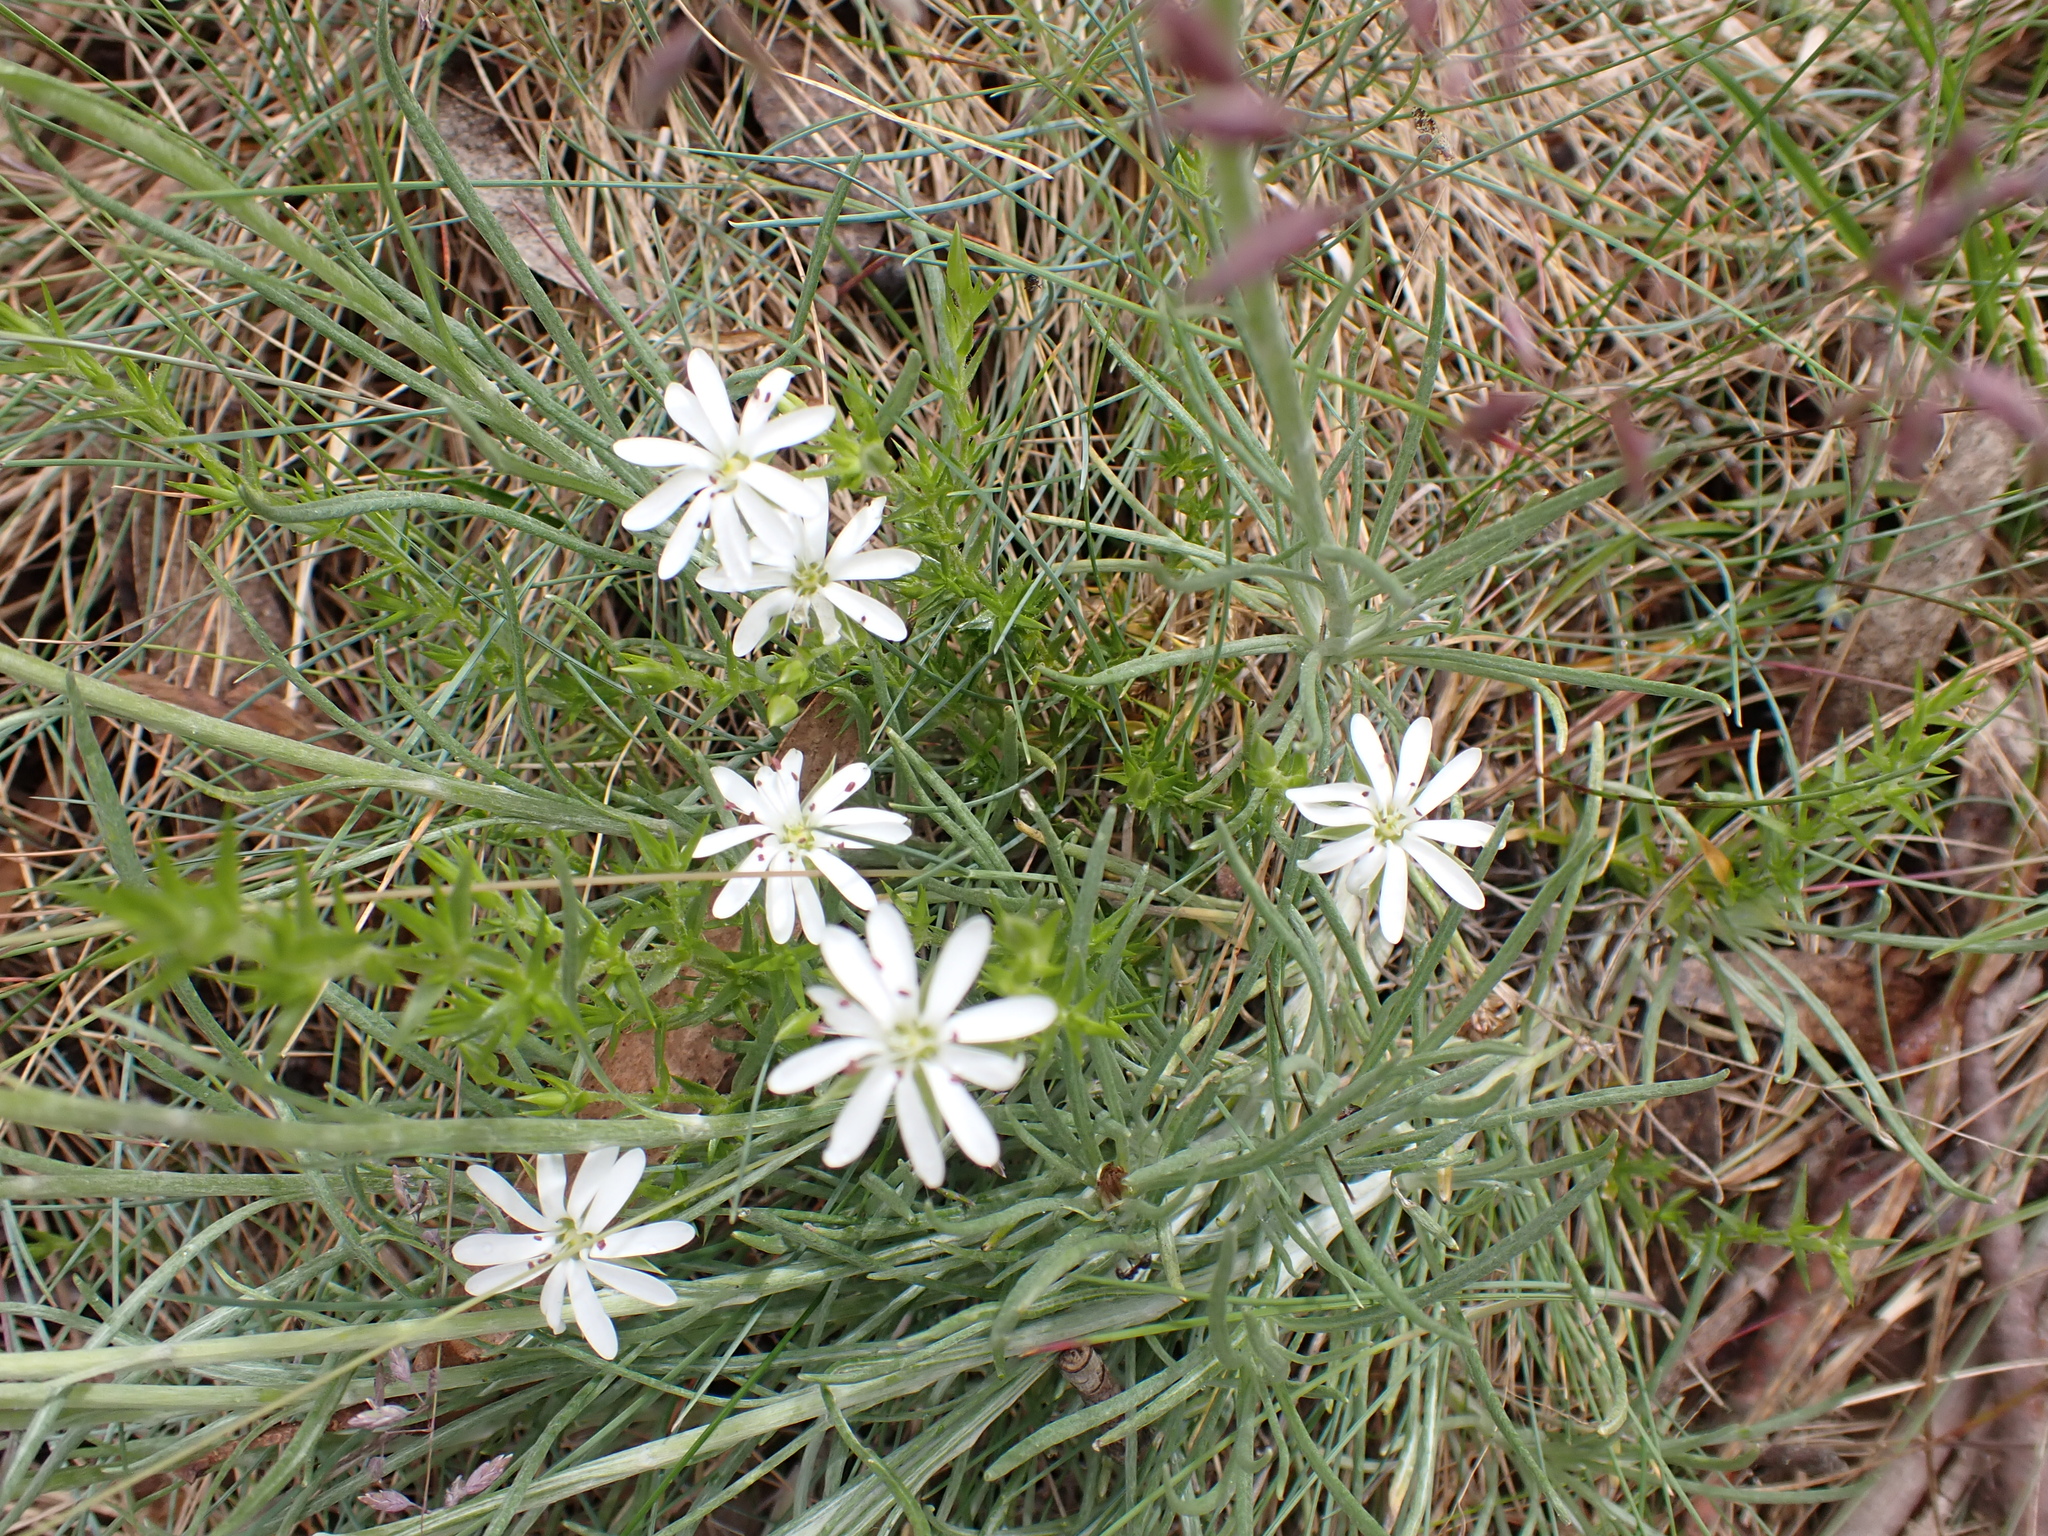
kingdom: Plantae
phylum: Tracheophyta
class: Magnoliopsida
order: Caryophyllales
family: Caryophyllaceae
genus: Stellaria
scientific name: Stellaria pungens
